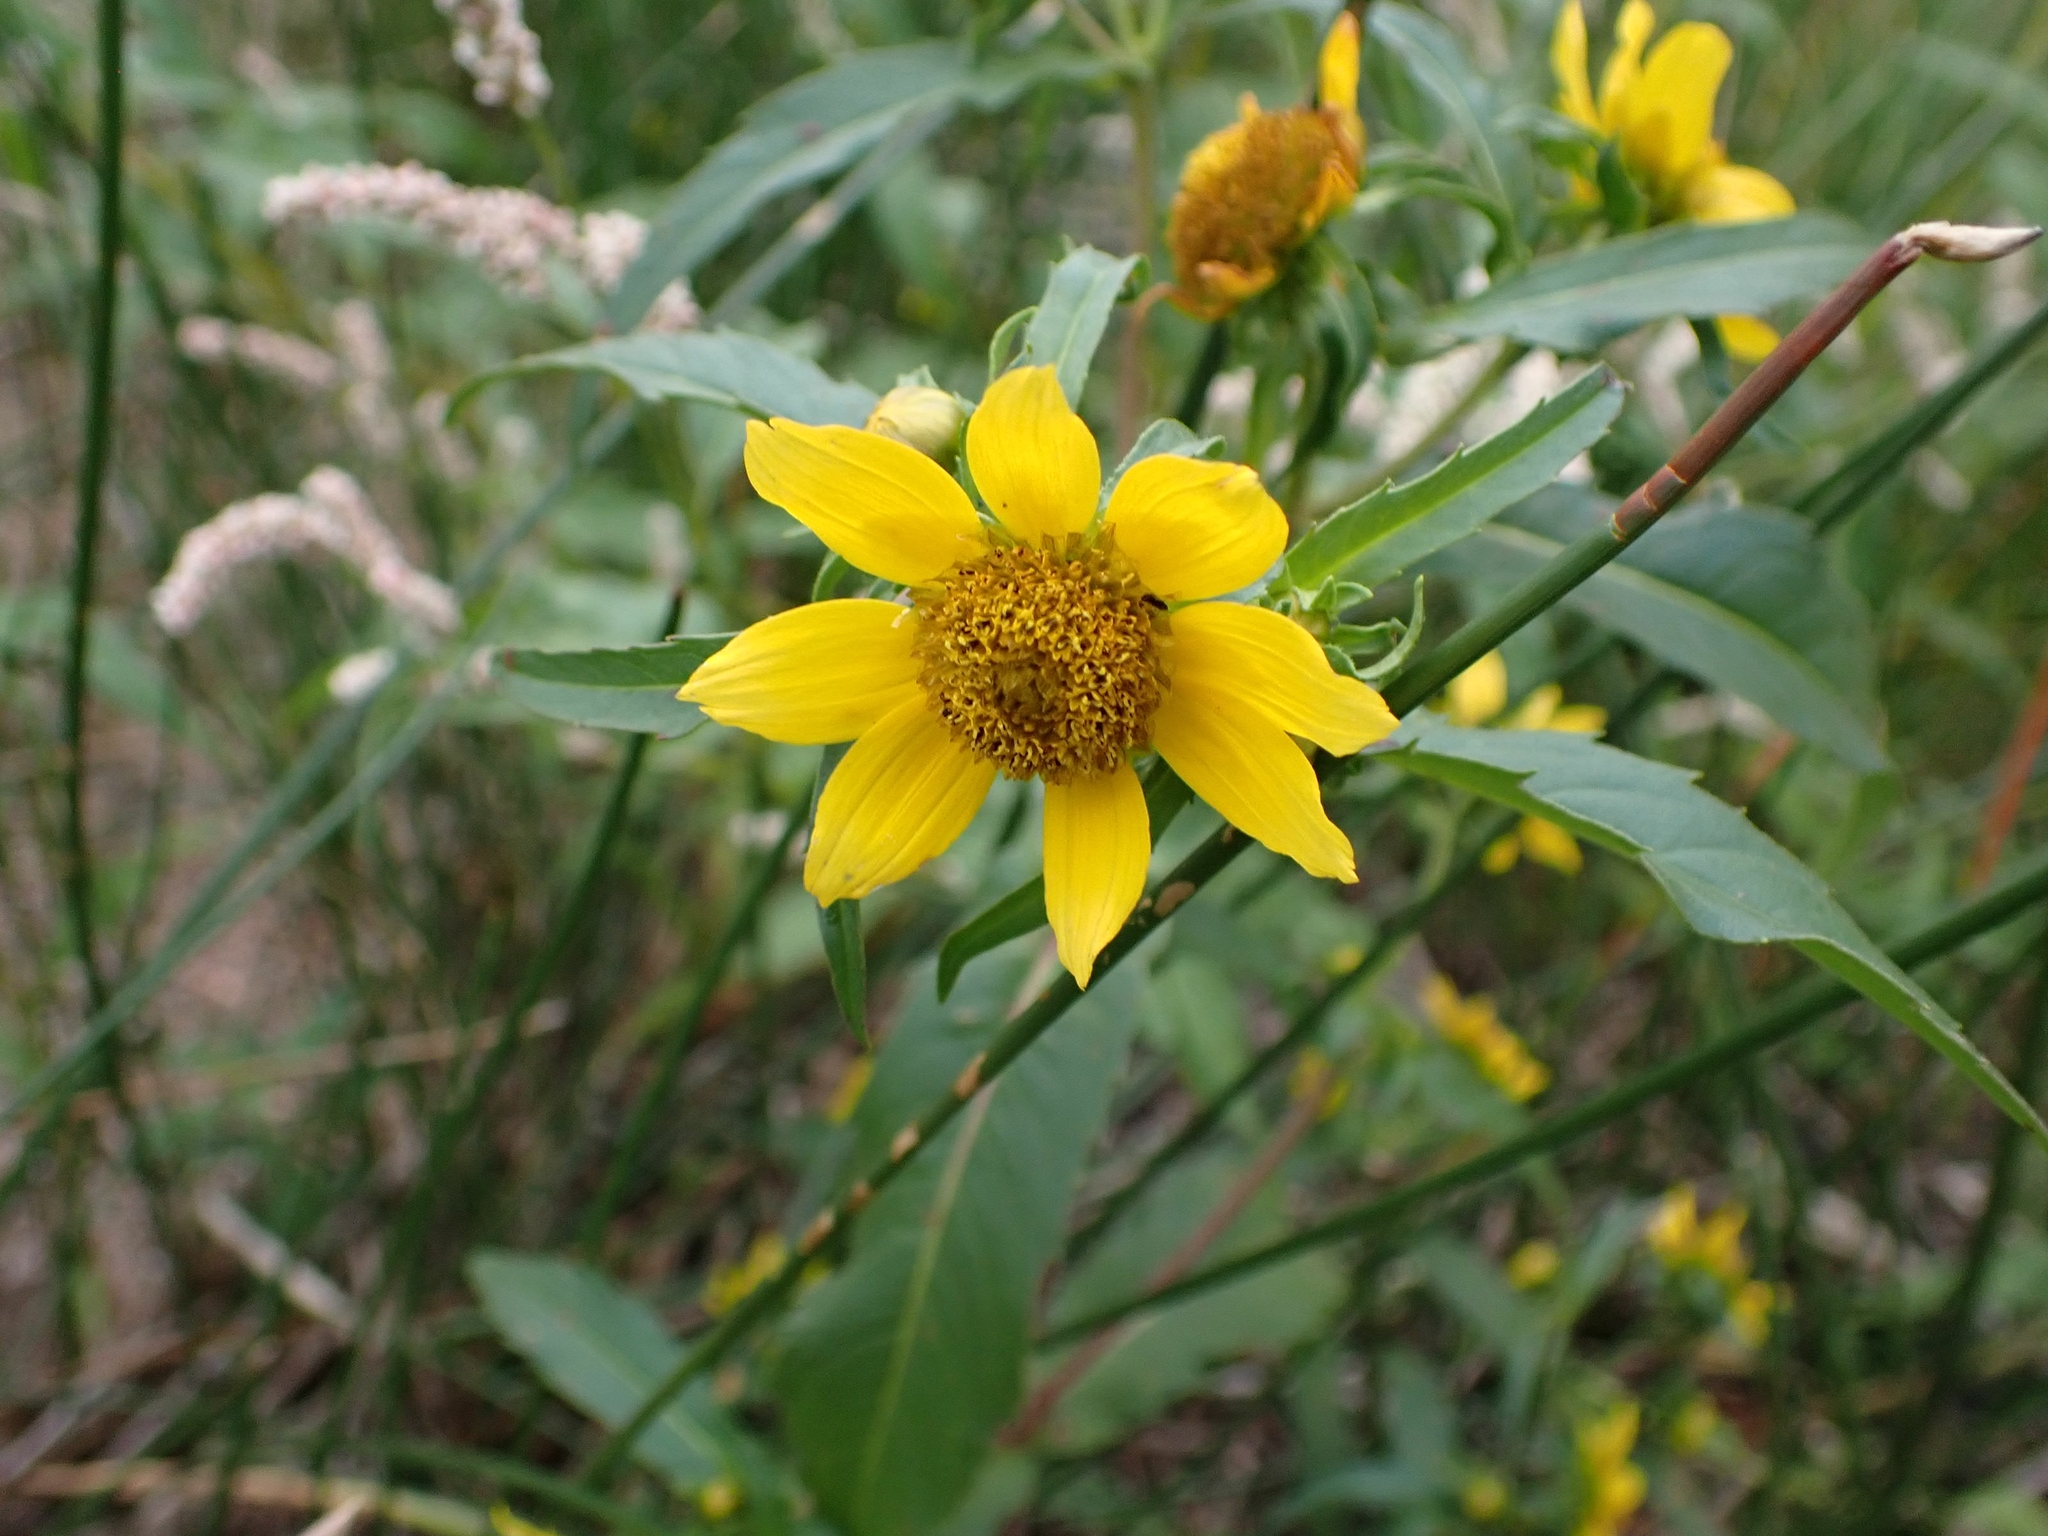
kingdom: Plantae
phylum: Tracheophyta
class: Magnoliopsida
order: Asterales
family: Asteraceae
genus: Bidens
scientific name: Bidens cernua
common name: Nodding bur-marigold
